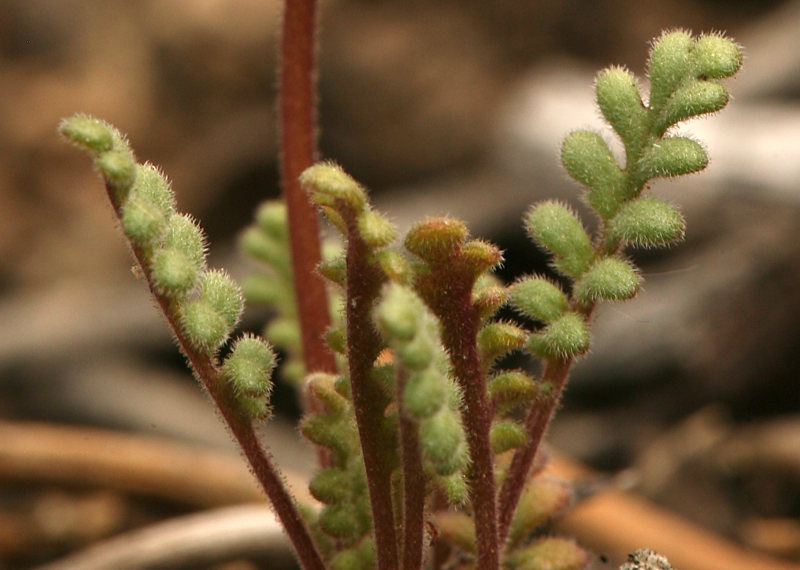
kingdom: Plantae
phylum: Tracheophyta
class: Magnoliopsida
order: Boraginales
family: Hydrophyllaceae
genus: Phacelia
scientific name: Phacelia fremontii
